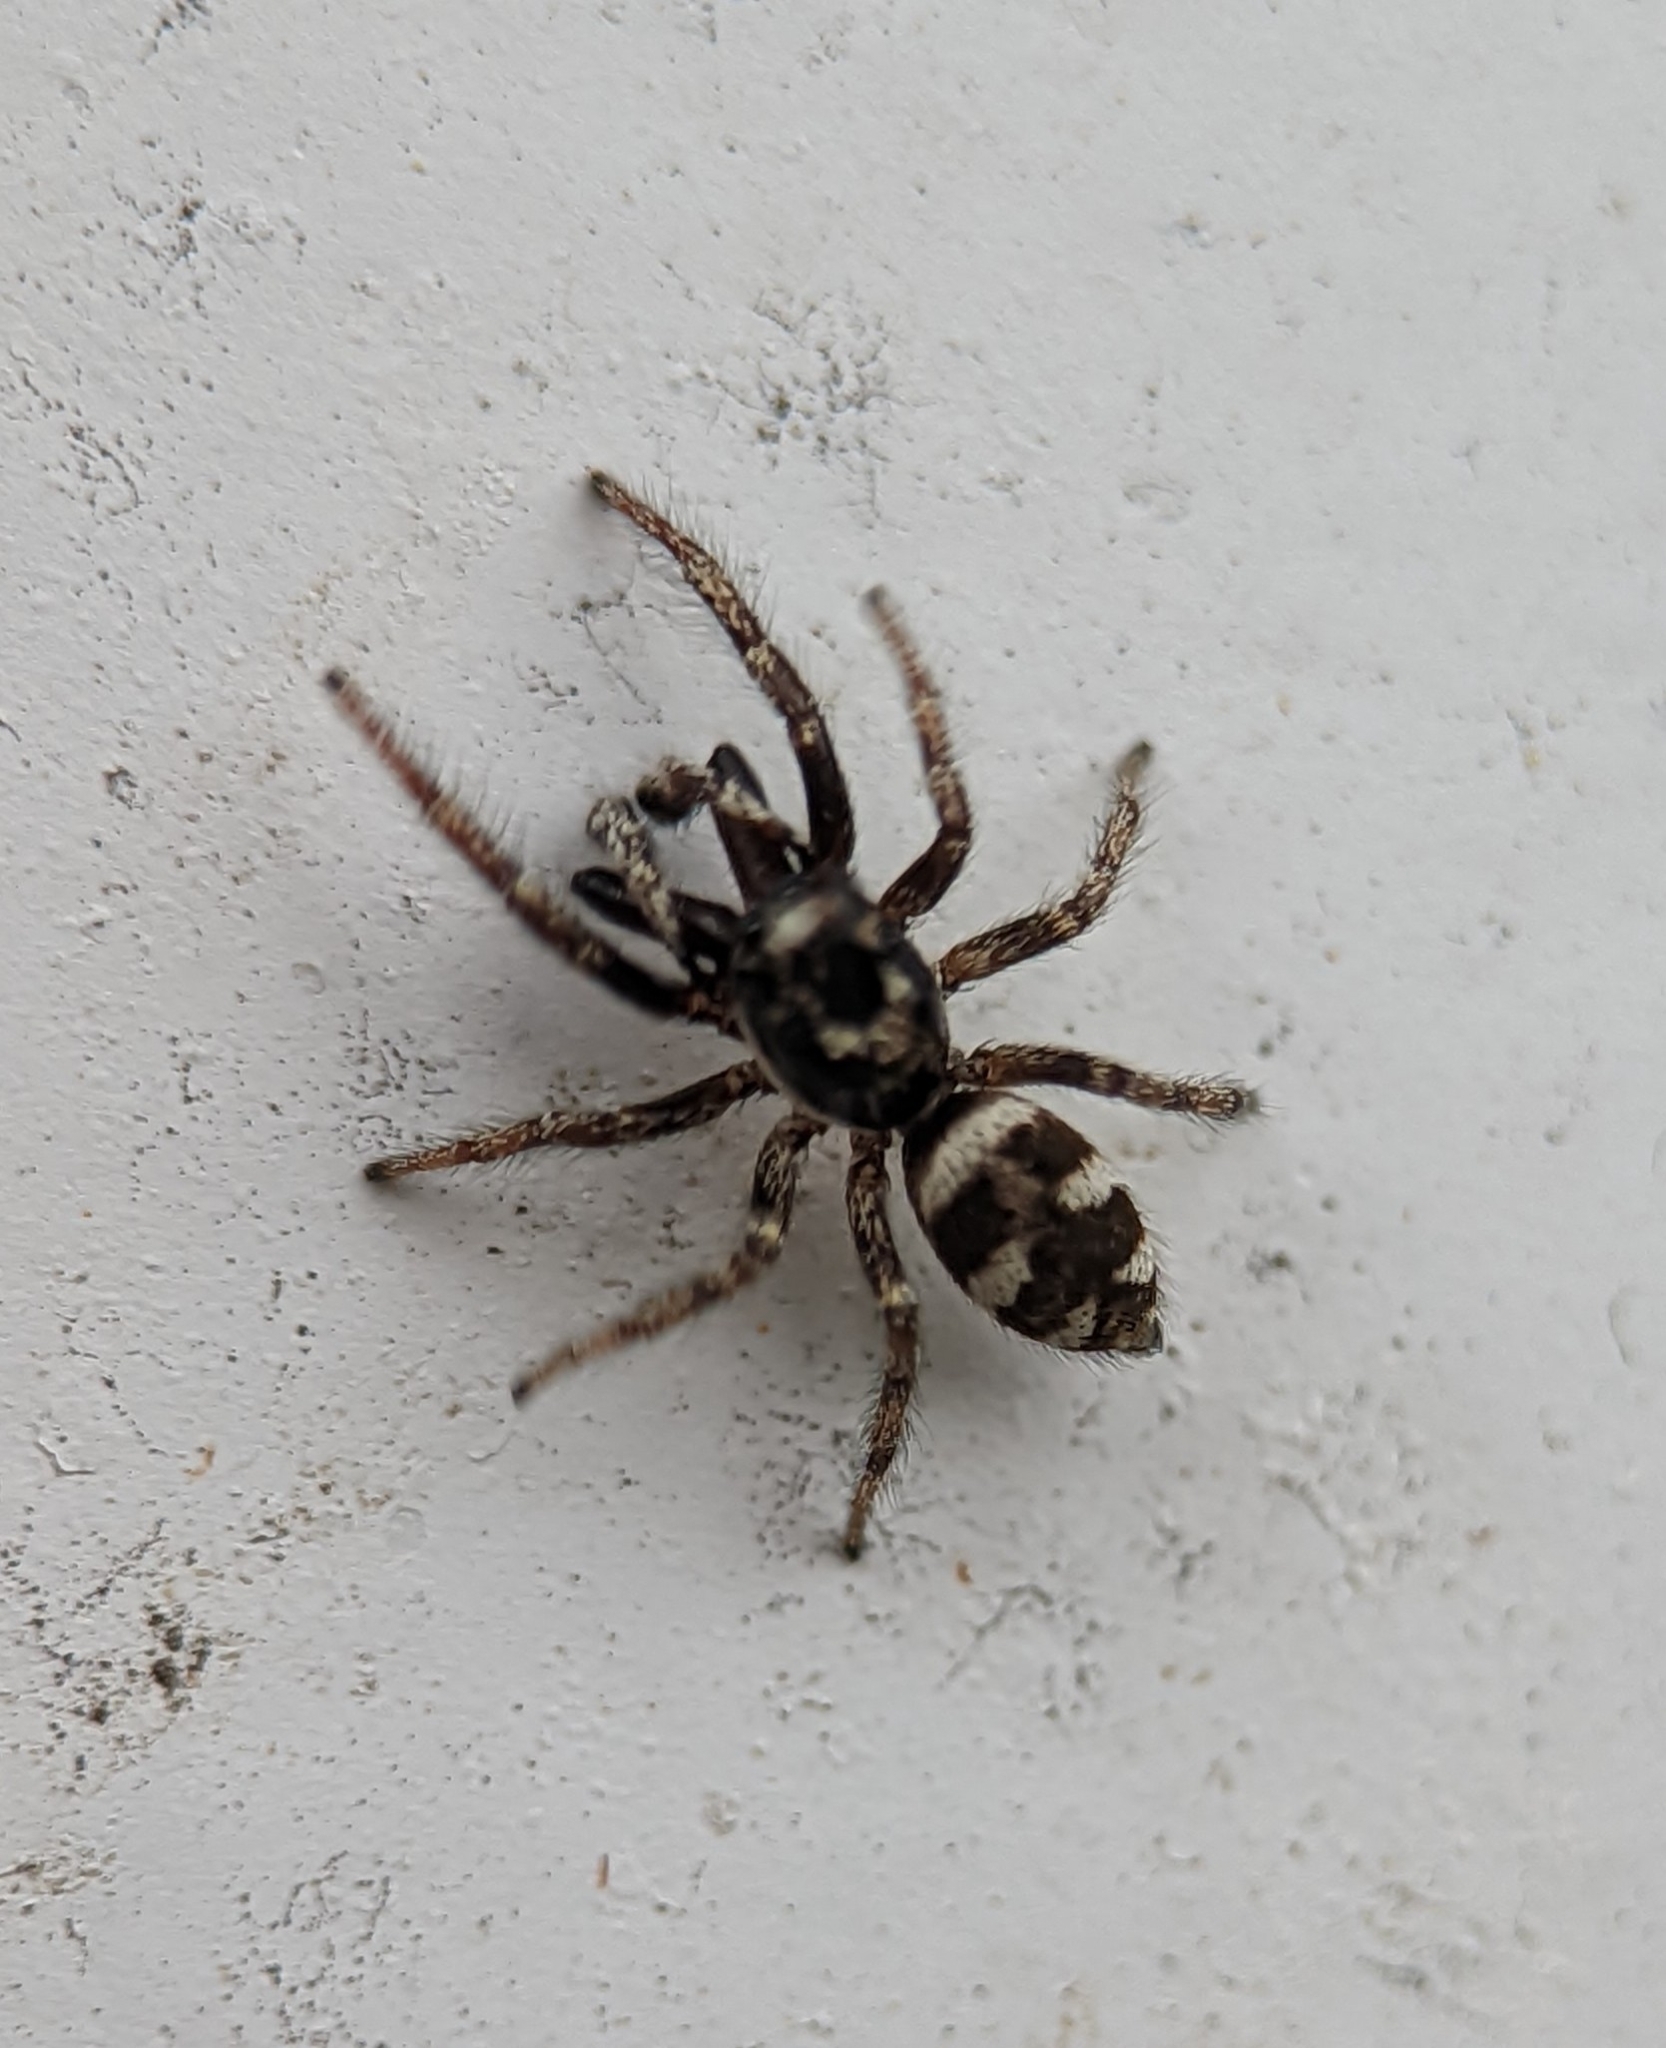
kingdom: Animalia
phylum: Arthropoda
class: Arachnida
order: Araneae
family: Salticidae
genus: Salticus
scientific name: Salticus scenicus
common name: Zebra jumper
